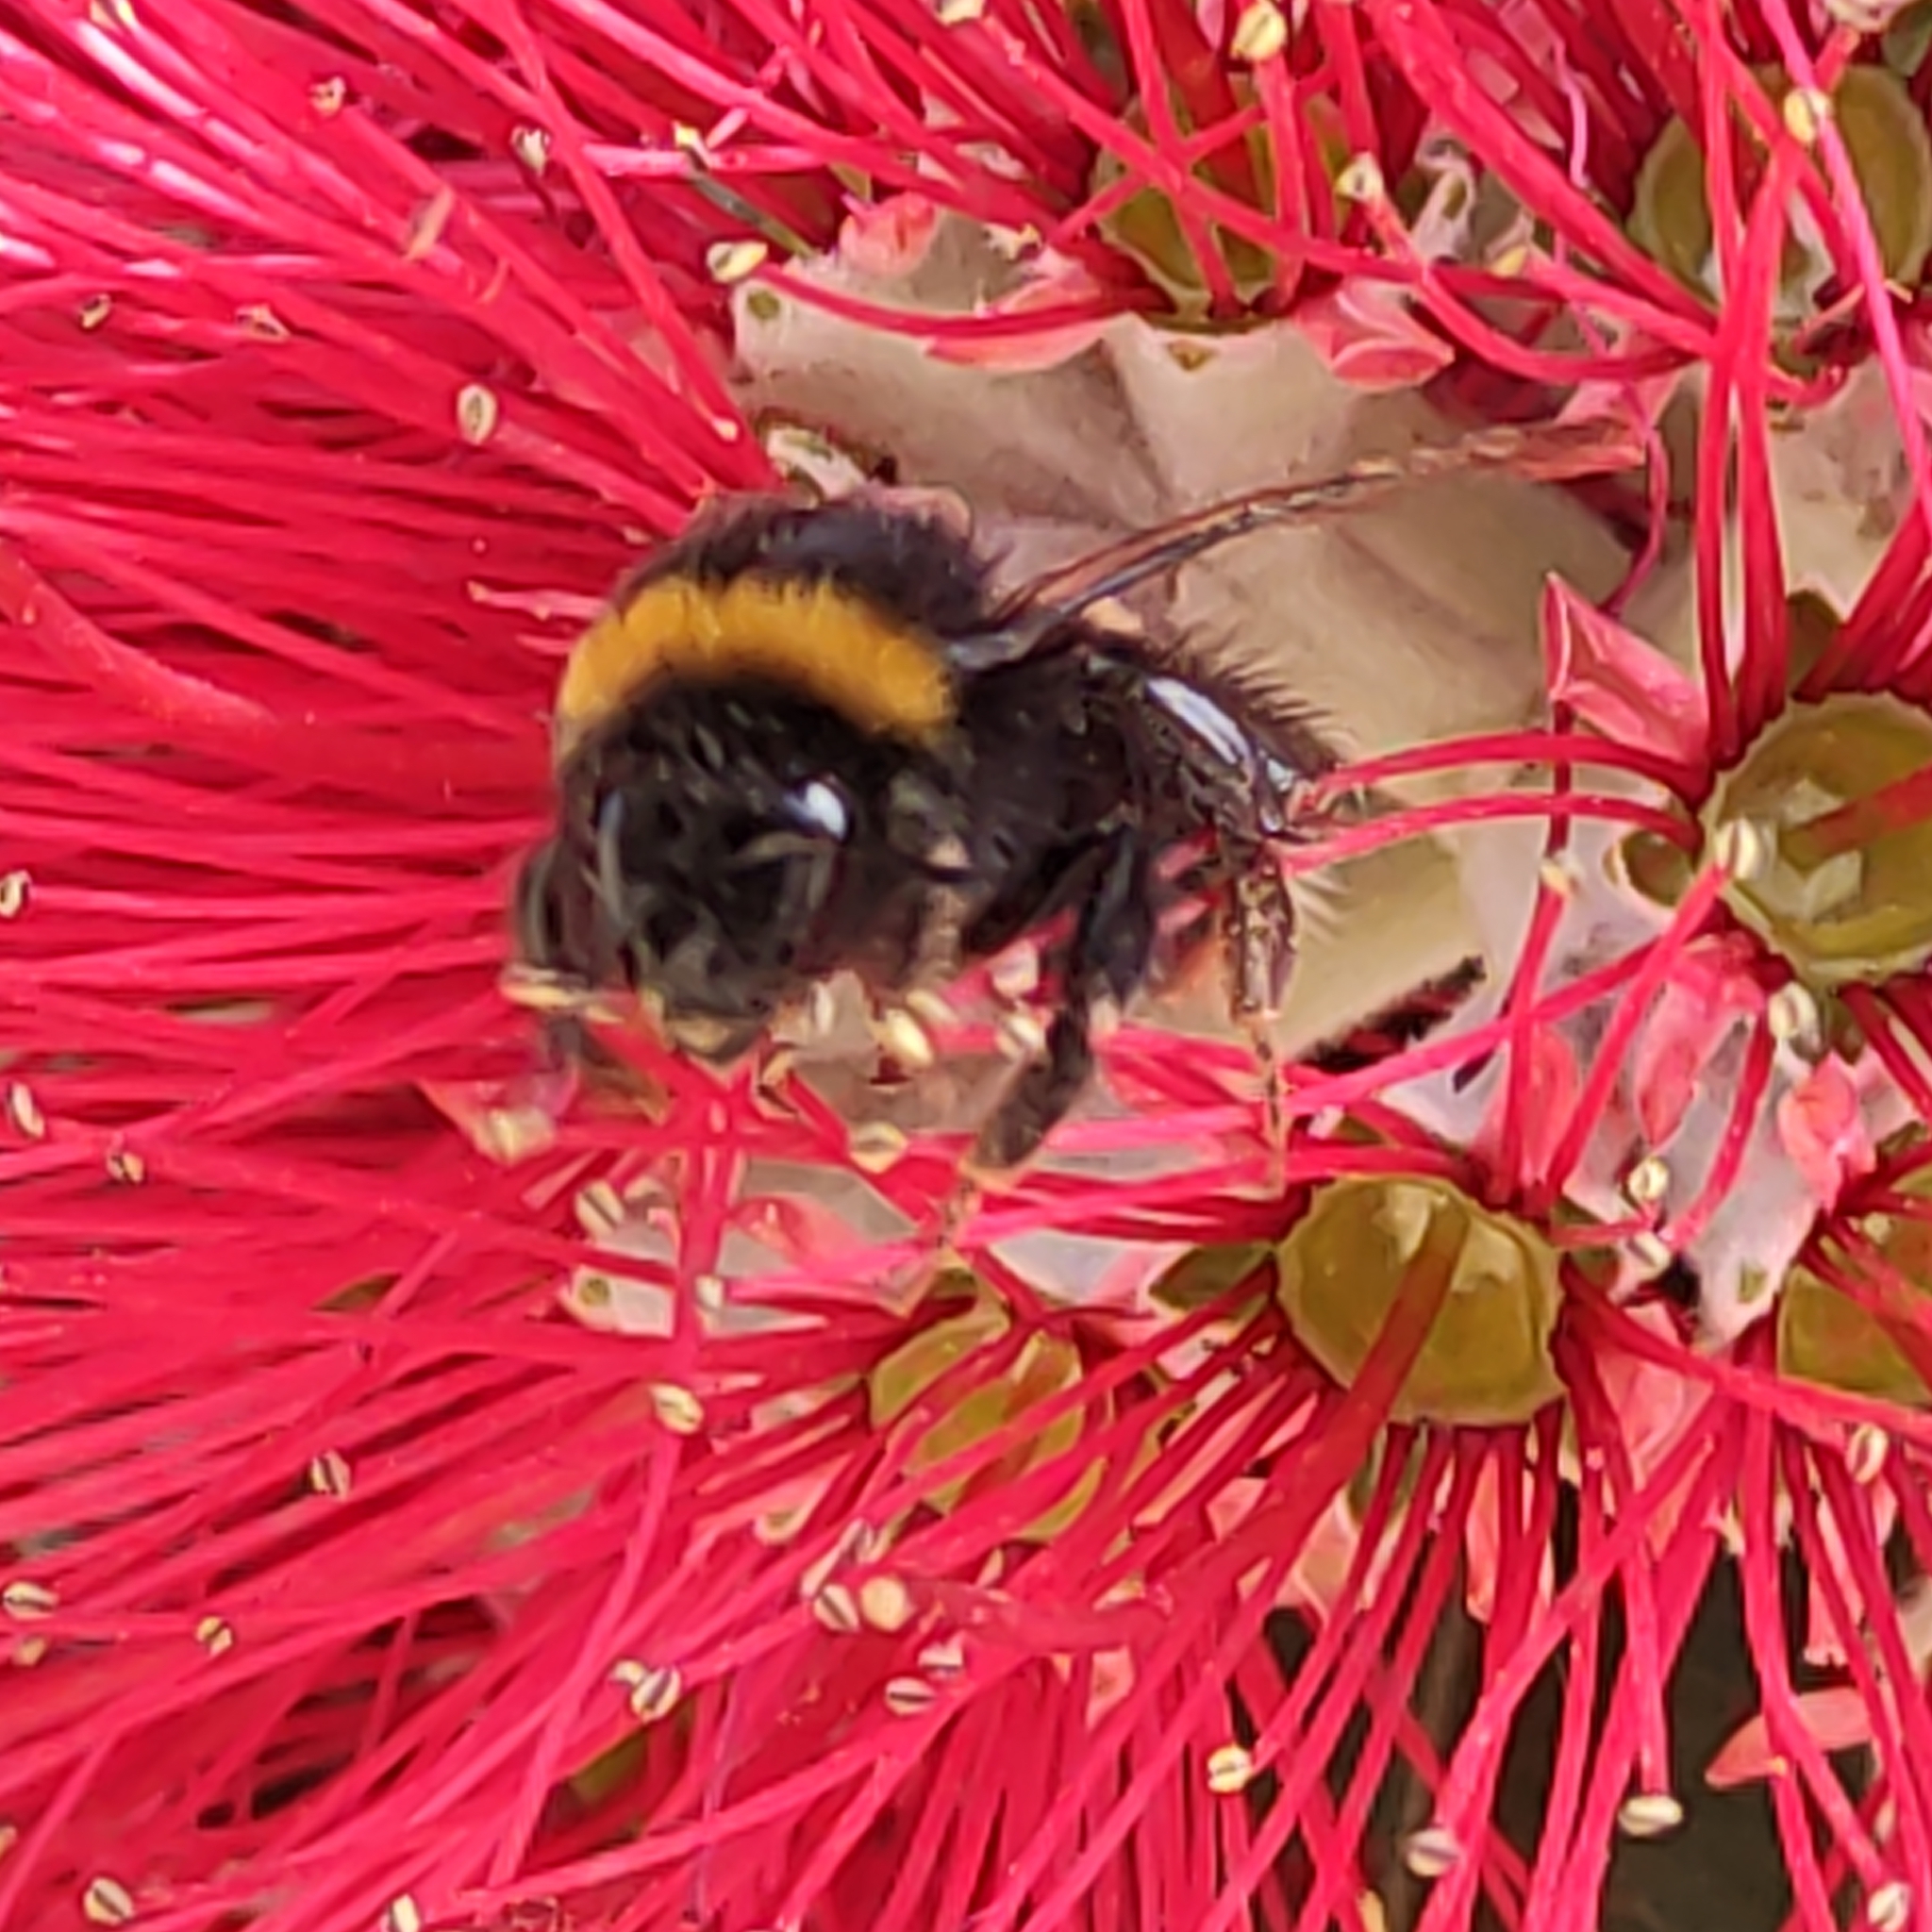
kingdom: Animalia
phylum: Arthropoda
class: Insecta
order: Hymenoptera
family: Apidae
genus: Bombus
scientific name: Bombus terrestris
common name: Buff-tailed bumblebee
